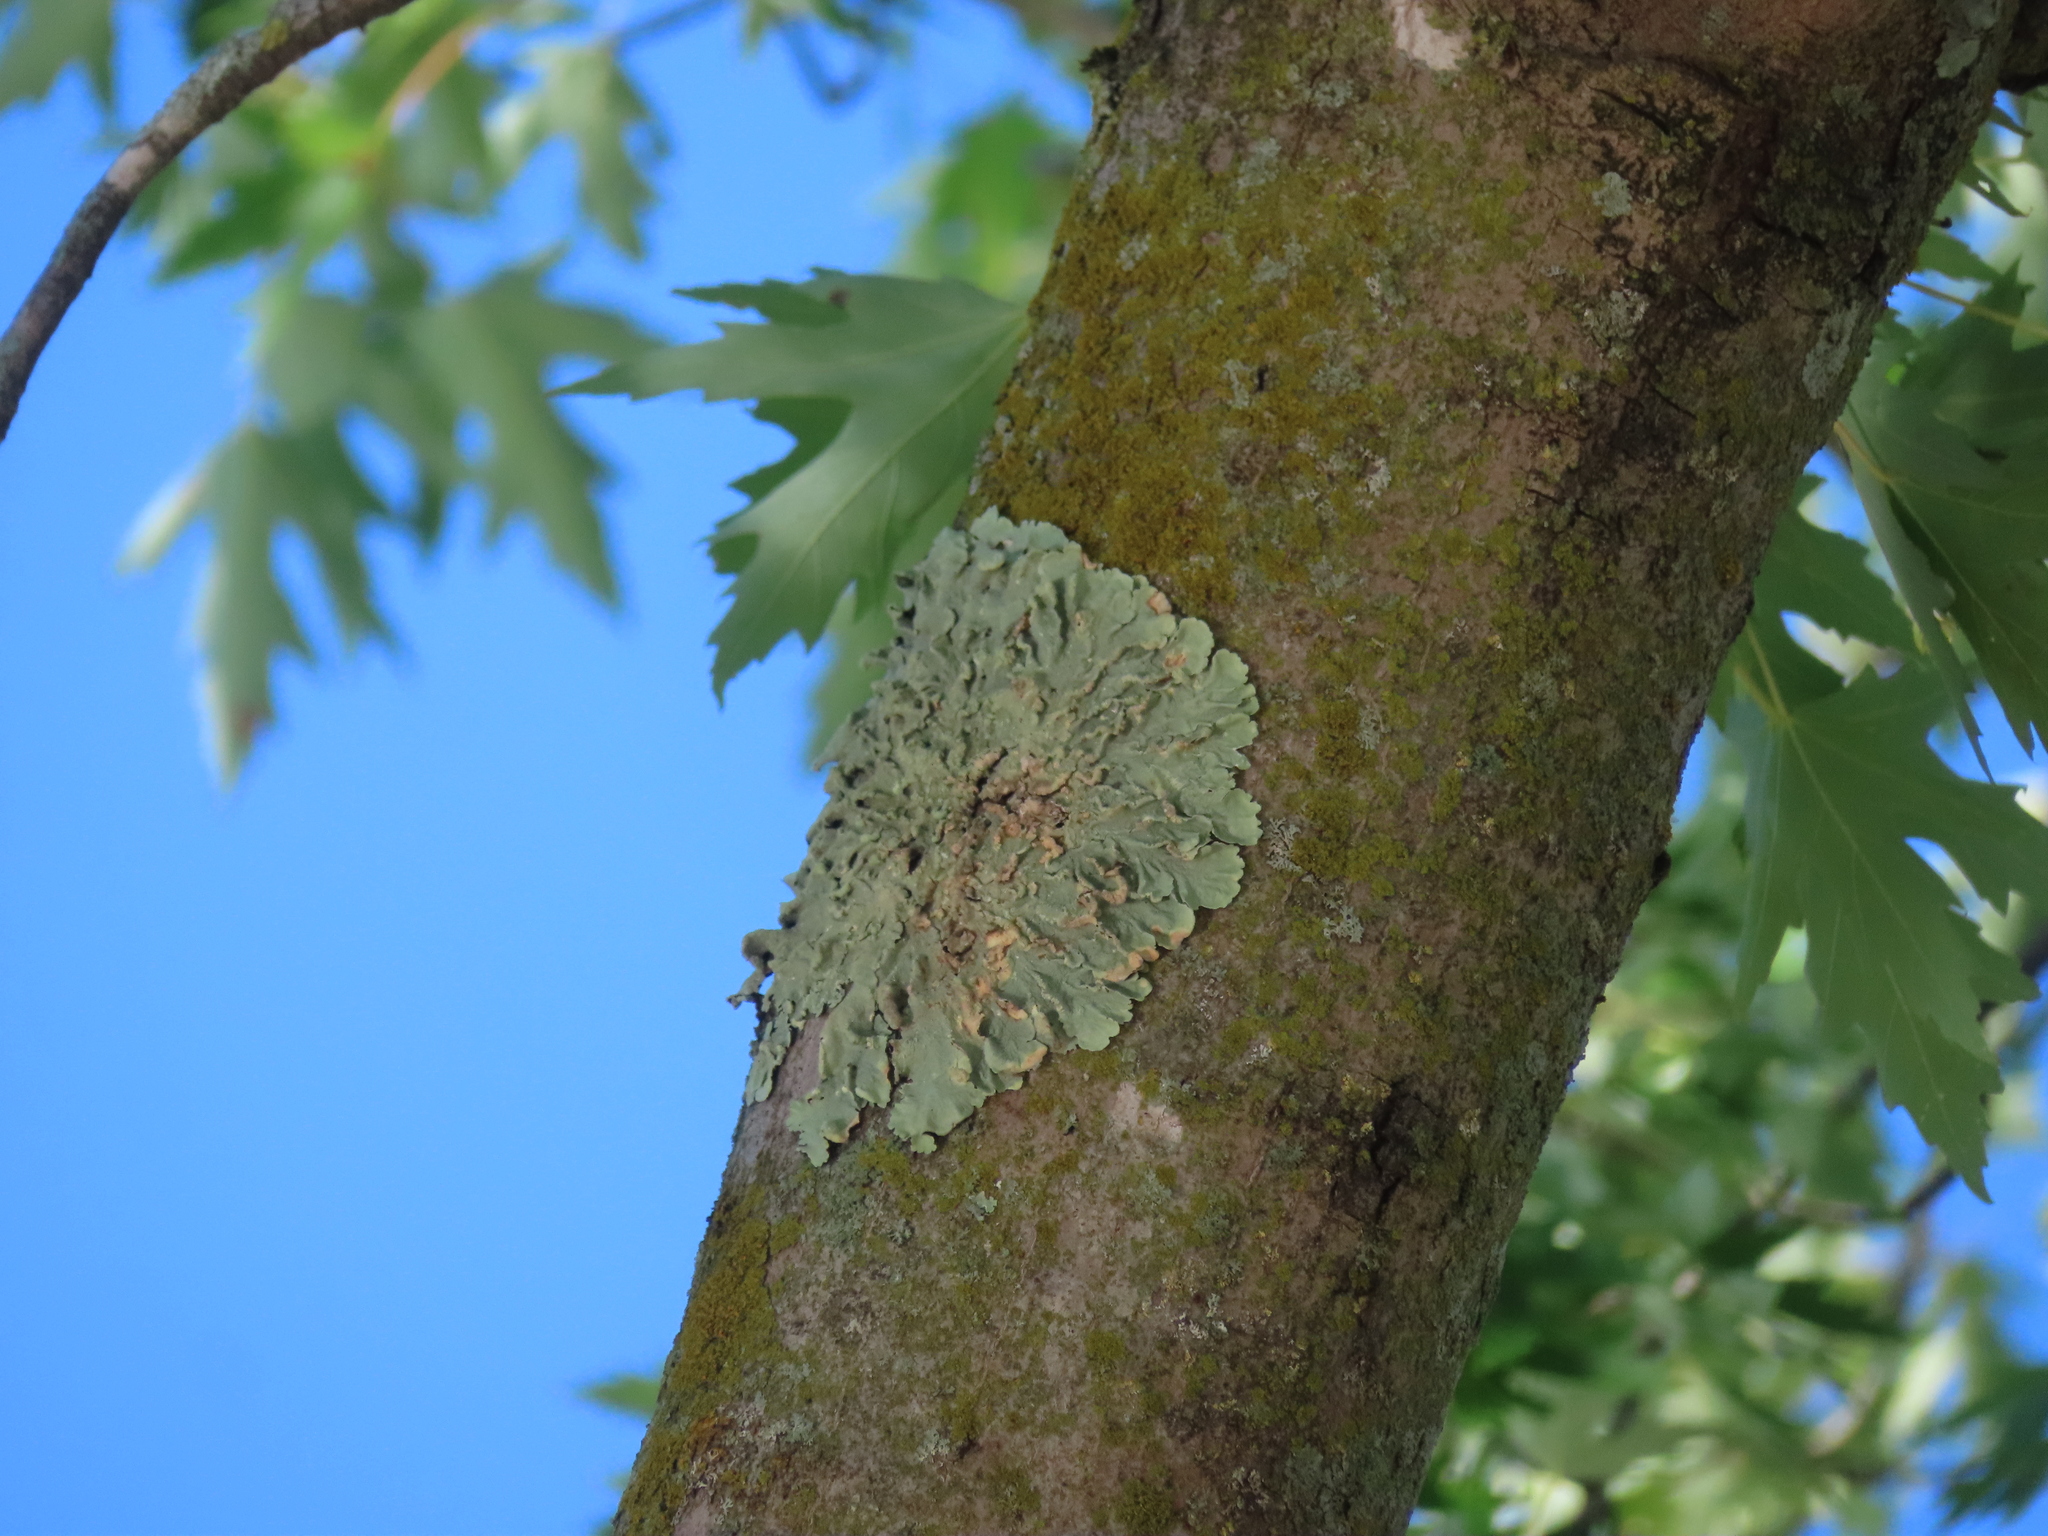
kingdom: Fungi
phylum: Ascomycota
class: Lecanoromycetes
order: Lecanorales
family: Parmeliaceae
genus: Flavoparmelia
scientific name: Flavoparmelia caperata
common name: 40-mile per hour lichen
